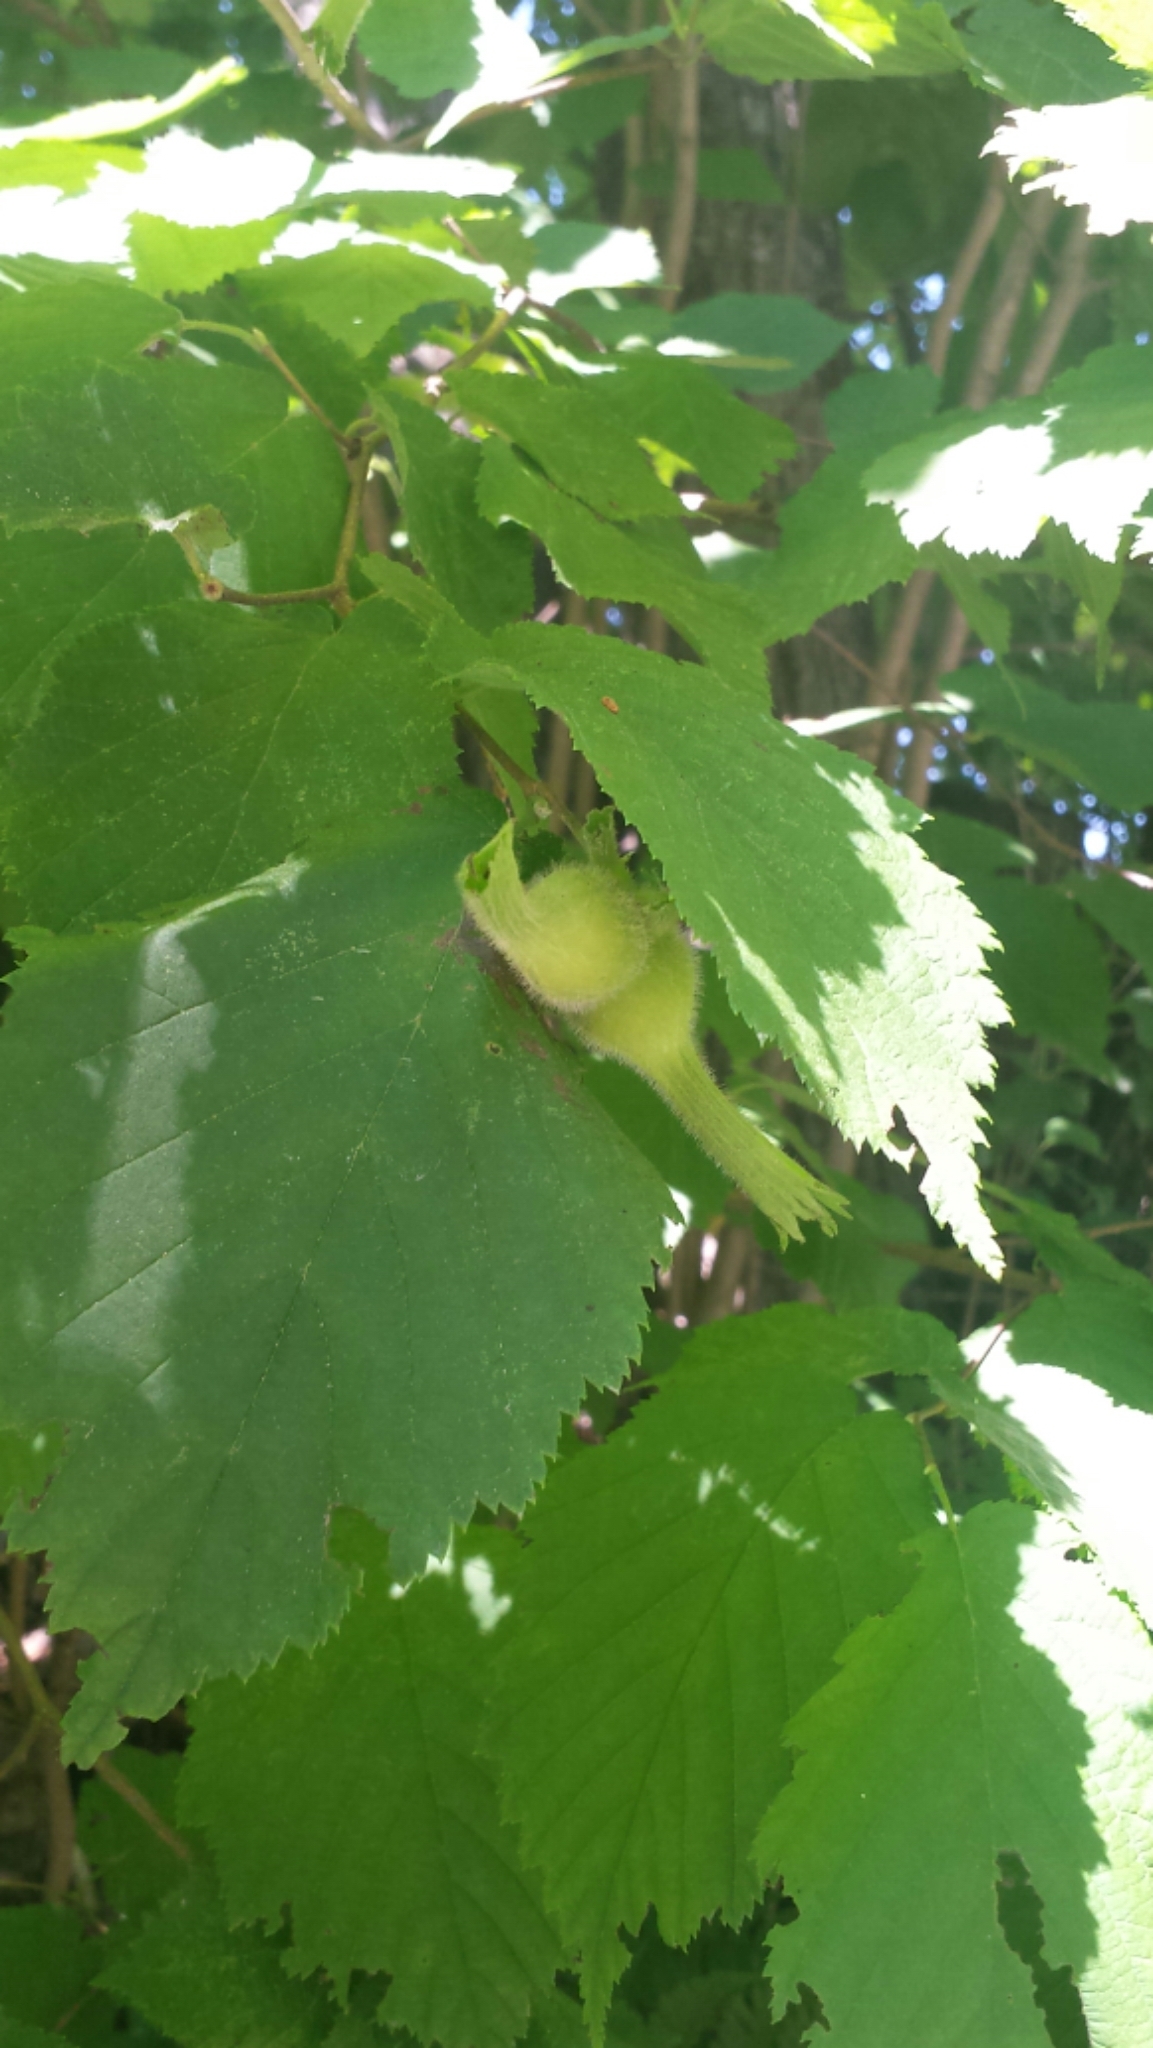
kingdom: Plantae
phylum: Tracheophyta
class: Magnoliopsida
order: Fagales
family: Betulaceae
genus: Corylus
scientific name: Corylus cornuta
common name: Beaked hazel
